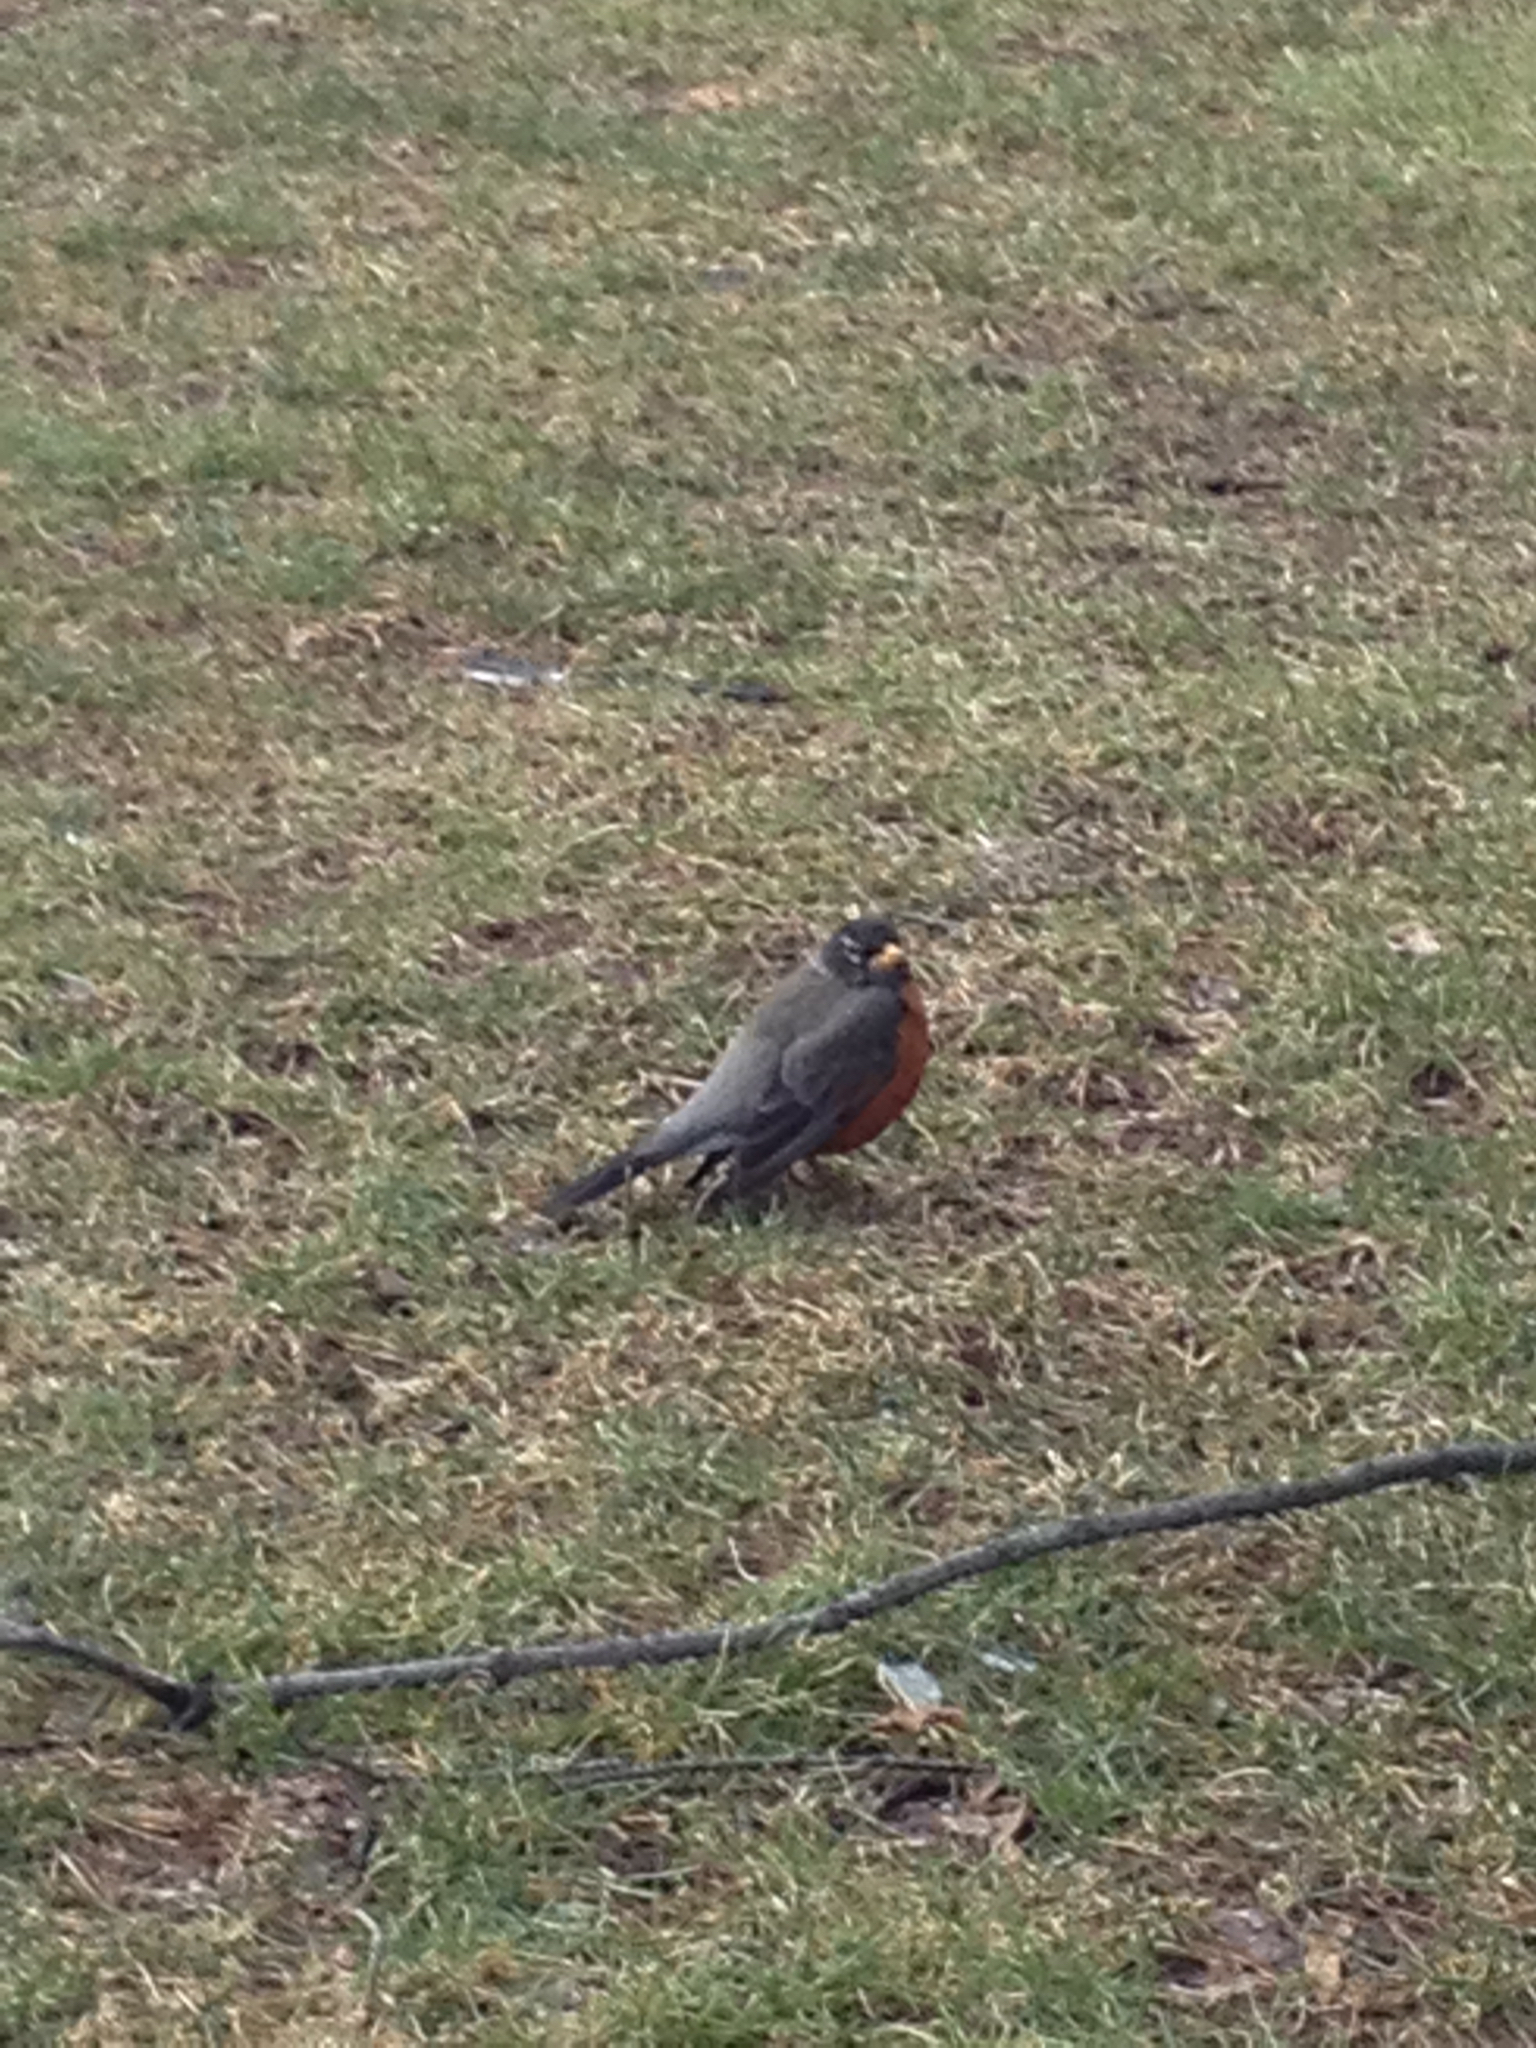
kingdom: Animalia
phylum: Chordata
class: Aves
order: Passeriformes
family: Turdidae
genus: Turdus
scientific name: Turdus migratorius
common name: American robin
